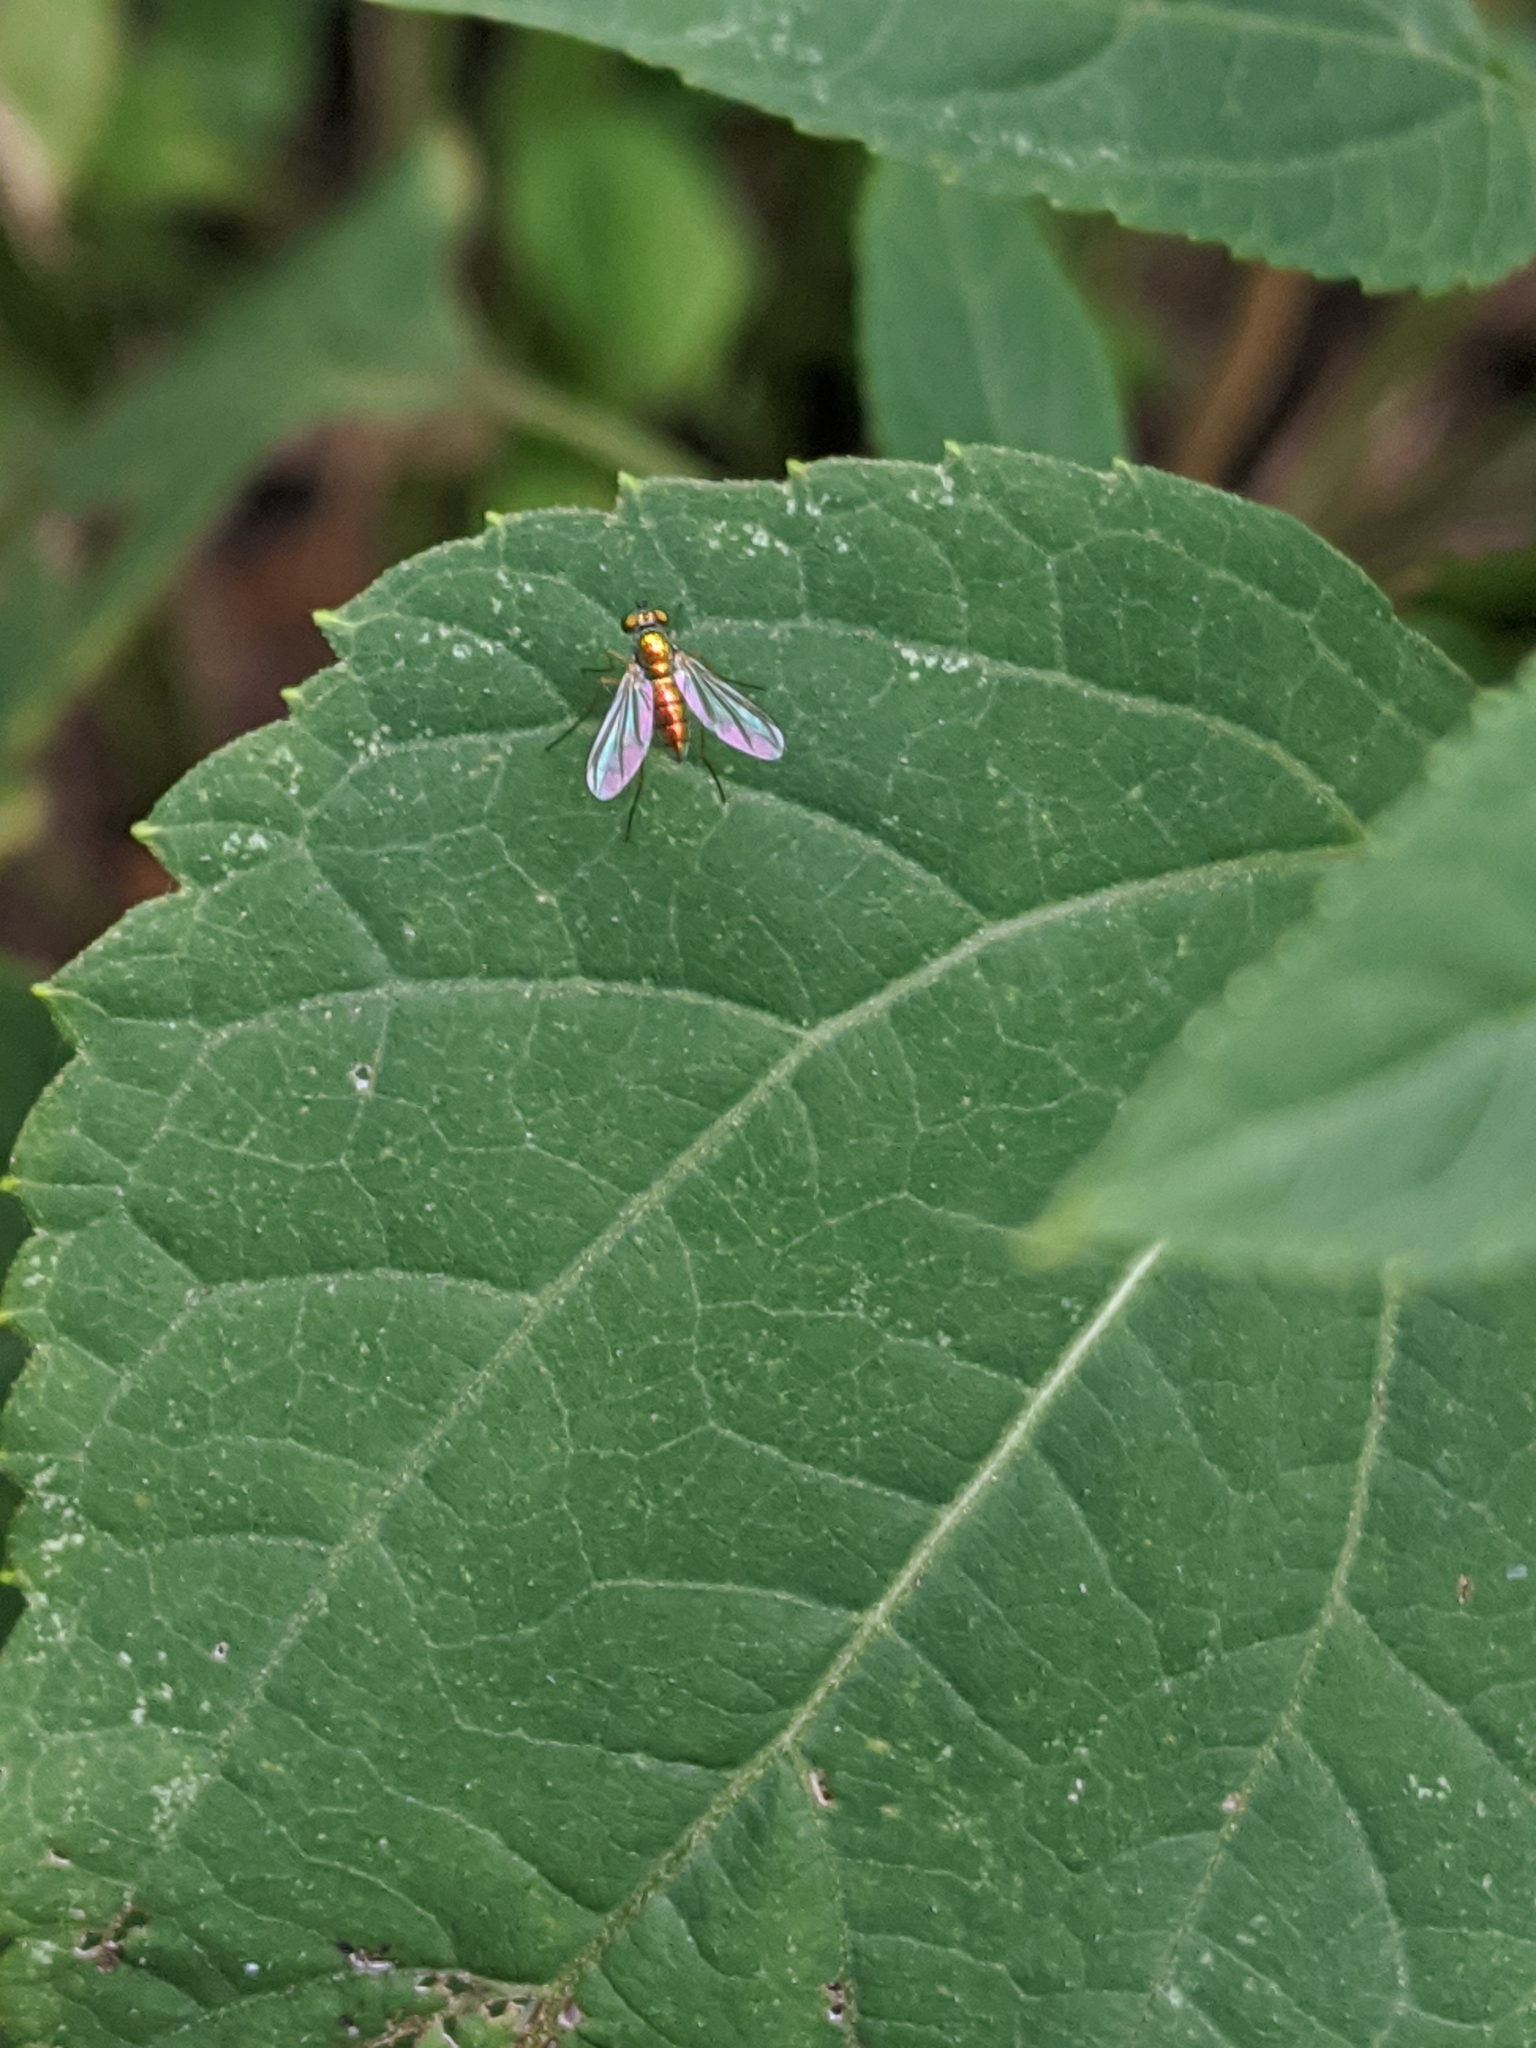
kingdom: Animalia
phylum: Arthropoda
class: Insecta
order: Diptera
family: Dolichopodidae
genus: Amblypsilopus
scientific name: Amblypsilopus scintillans
